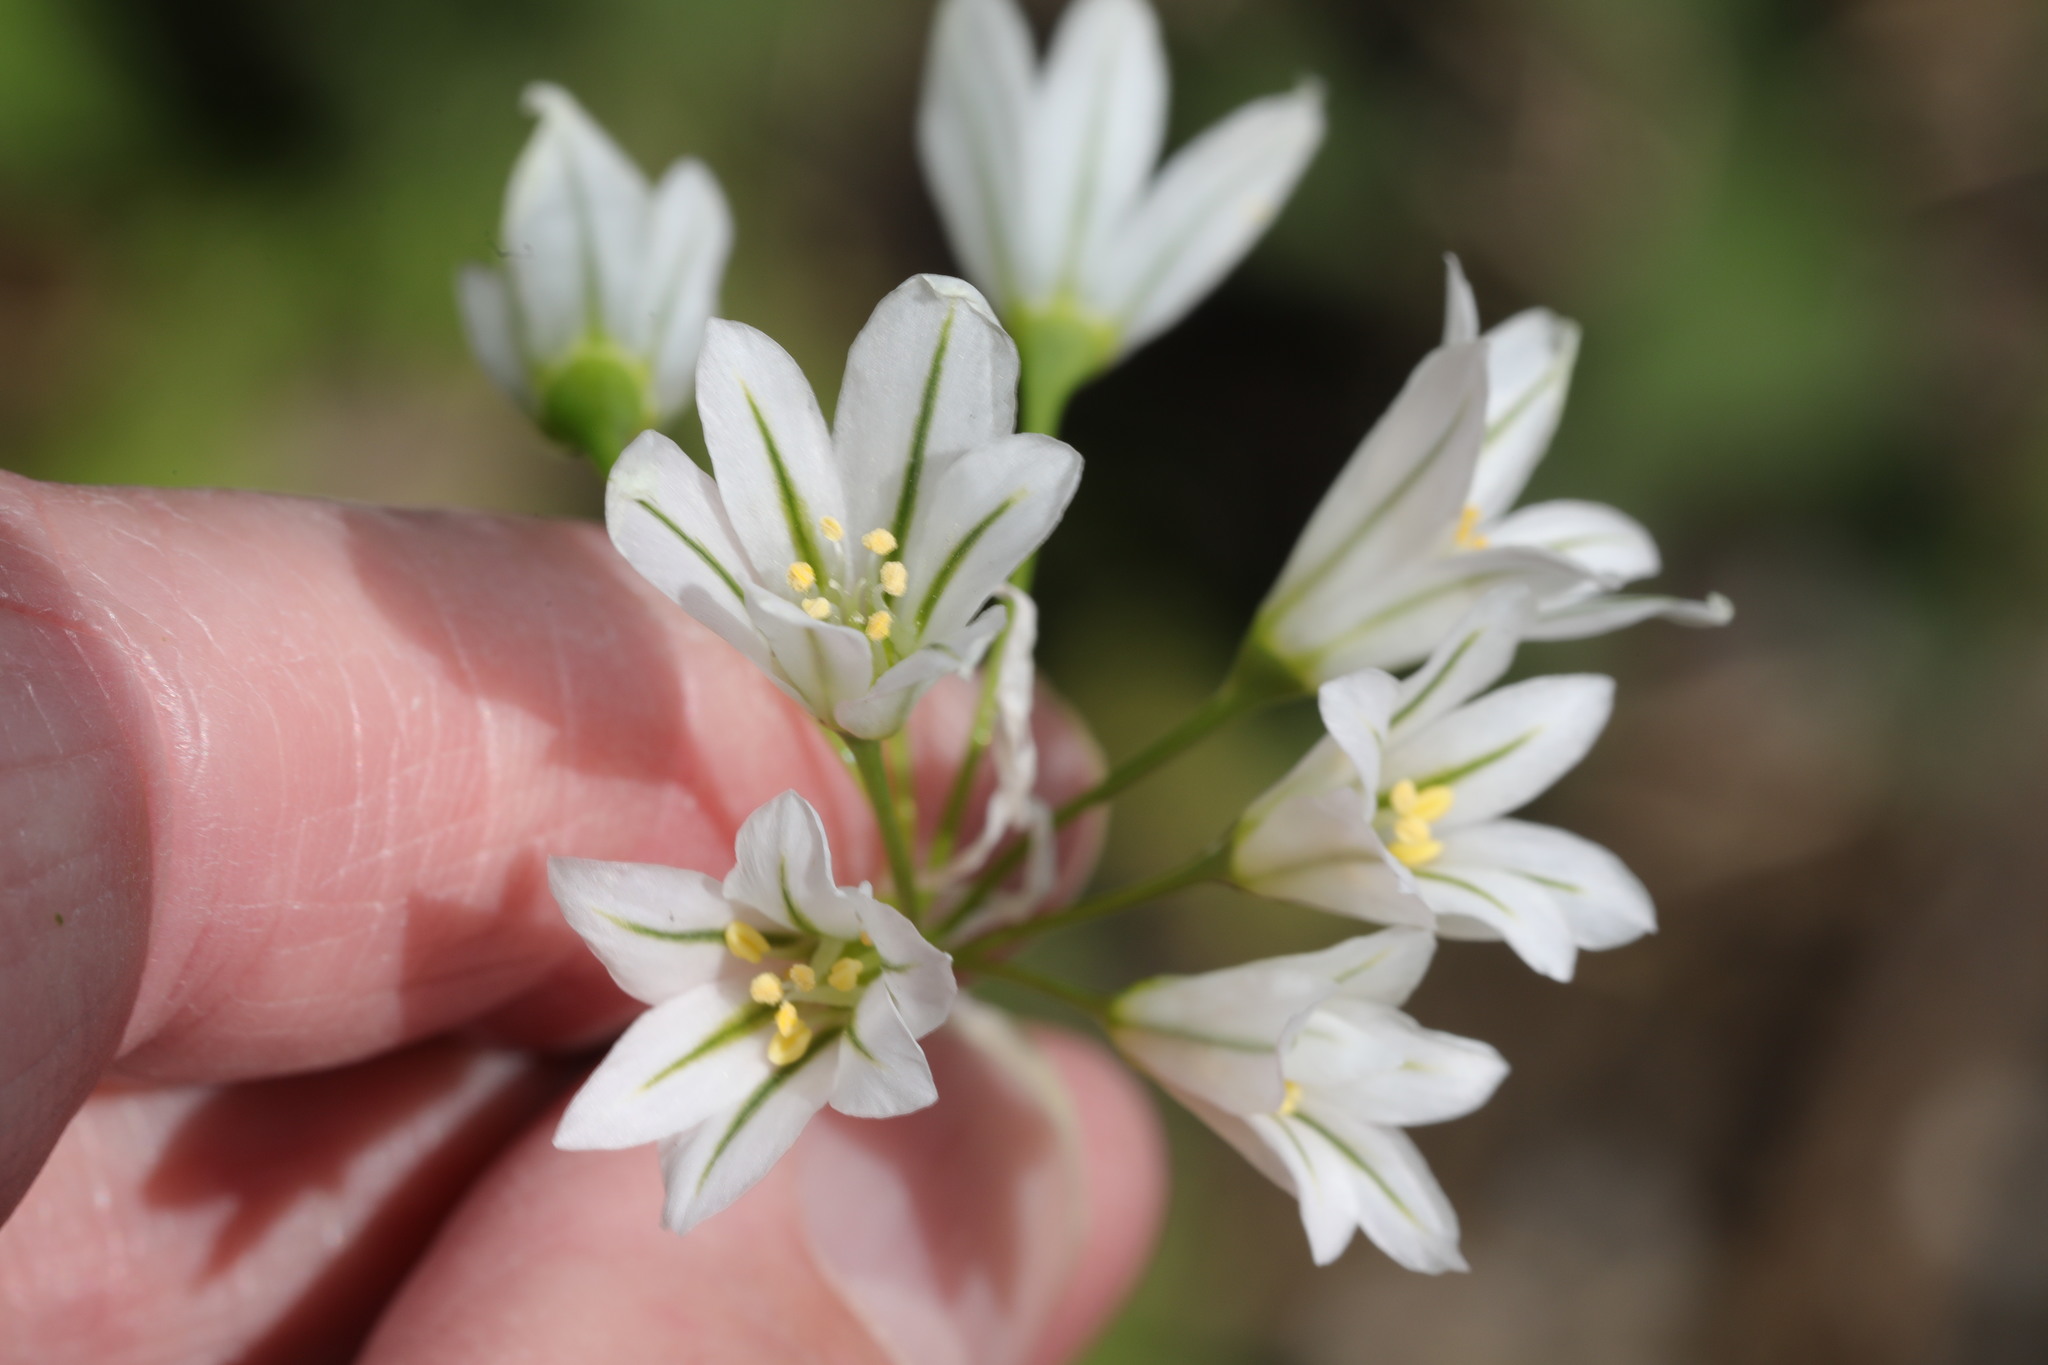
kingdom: Plantae
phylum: Tracheophyta
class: Liliopsida
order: Asparagales
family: Amaryllidaceae
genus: Allium
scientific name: Allium triquetrum
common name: Three-cornered garlic
